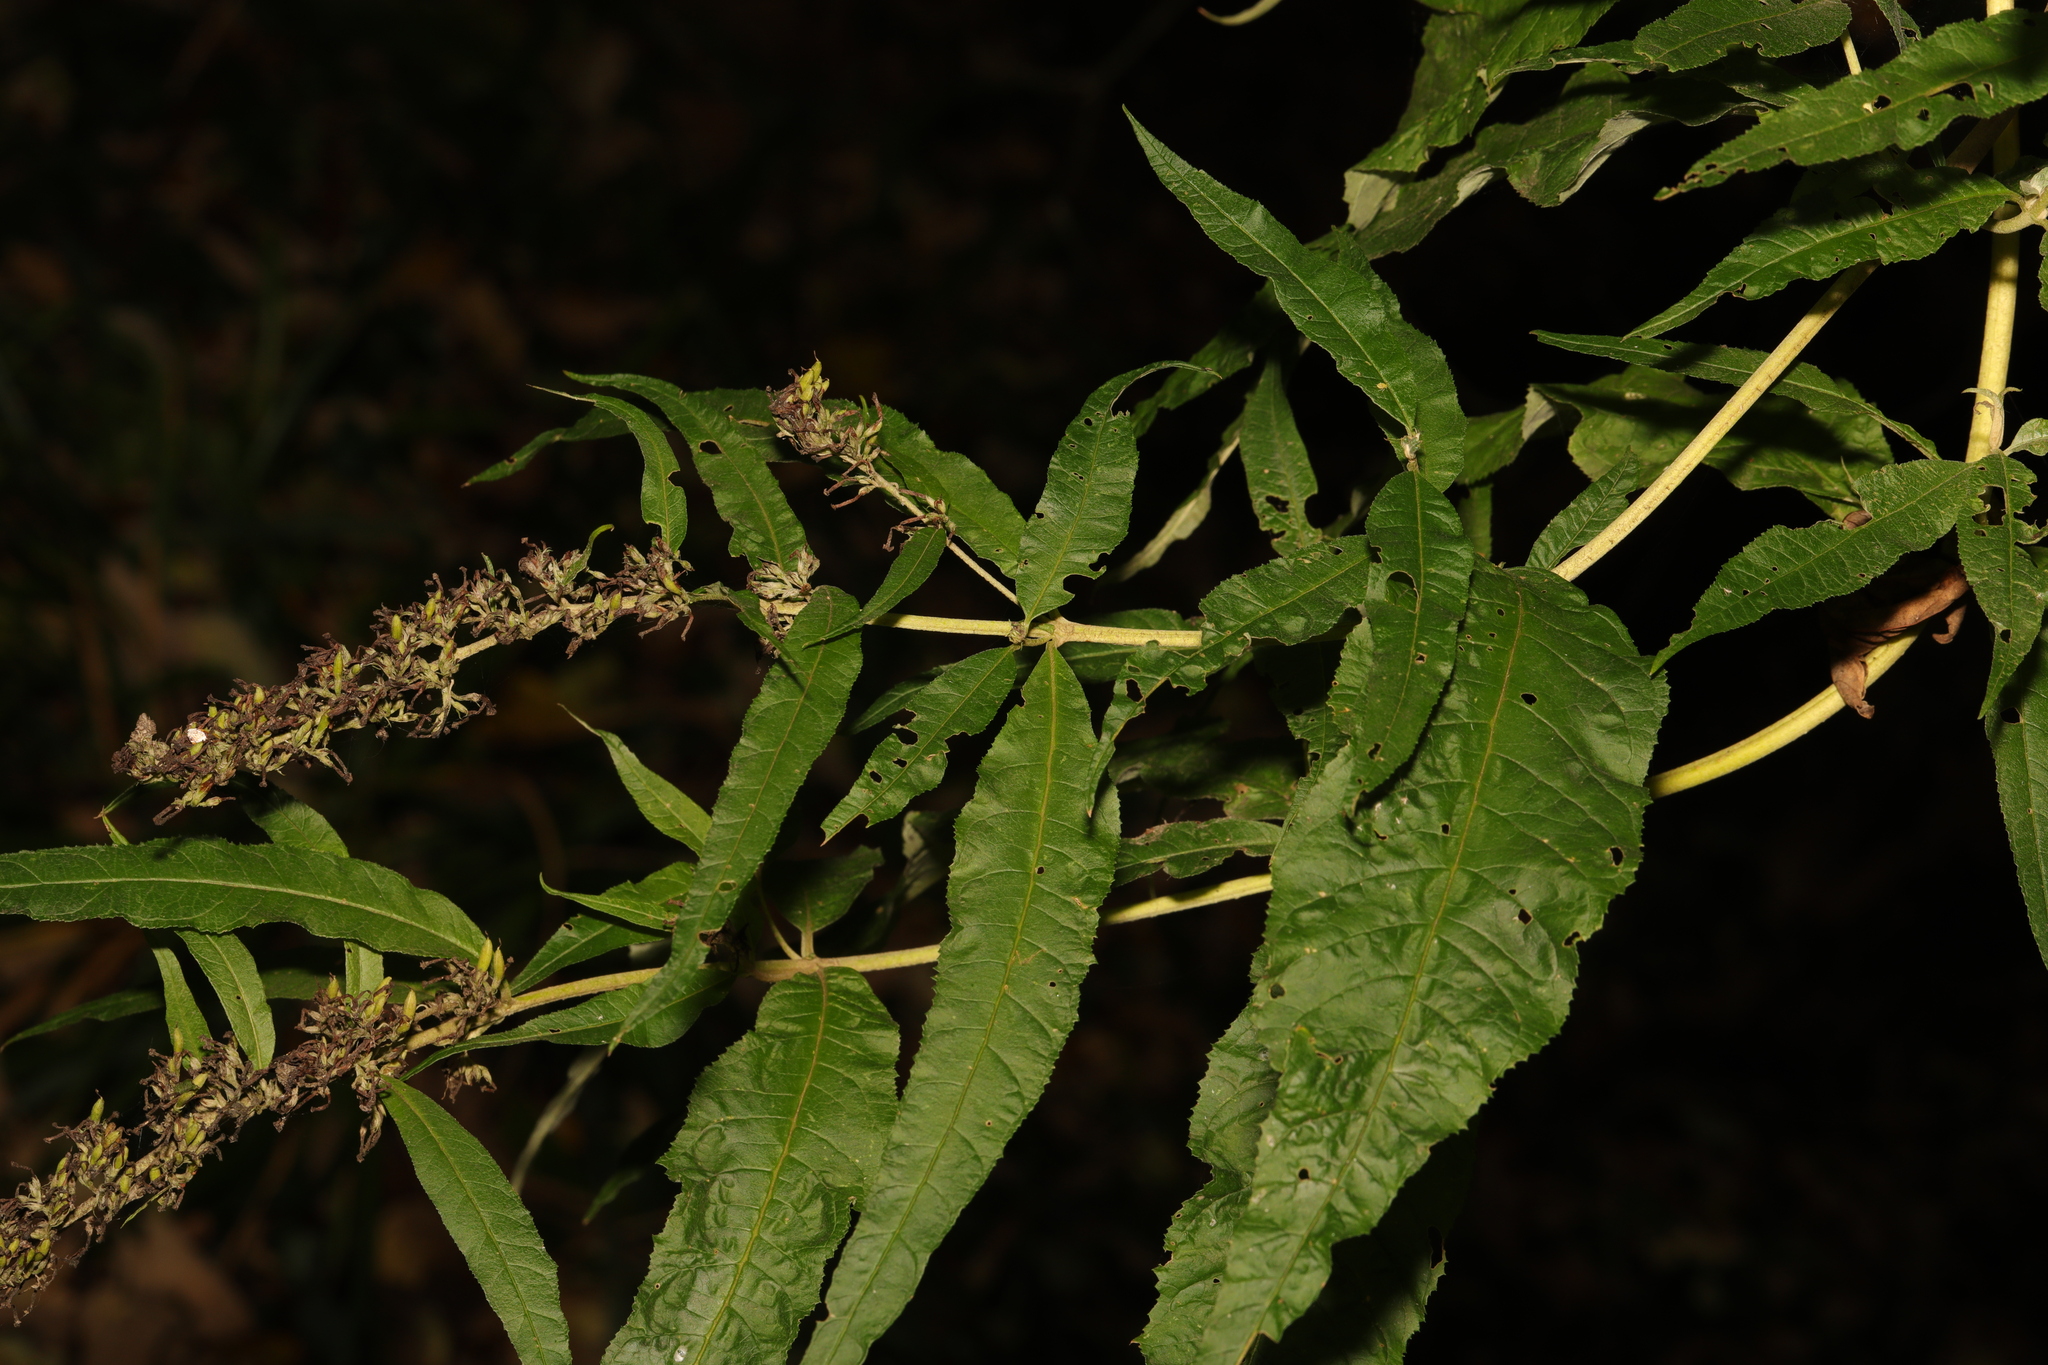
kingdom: Plantae
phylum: Tracheophyta
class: Magnoliopsida
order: Lamiales
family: Scrophulariaceae
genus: Buddleja
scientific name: Buddleja davidii
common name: Butterfly-bush
